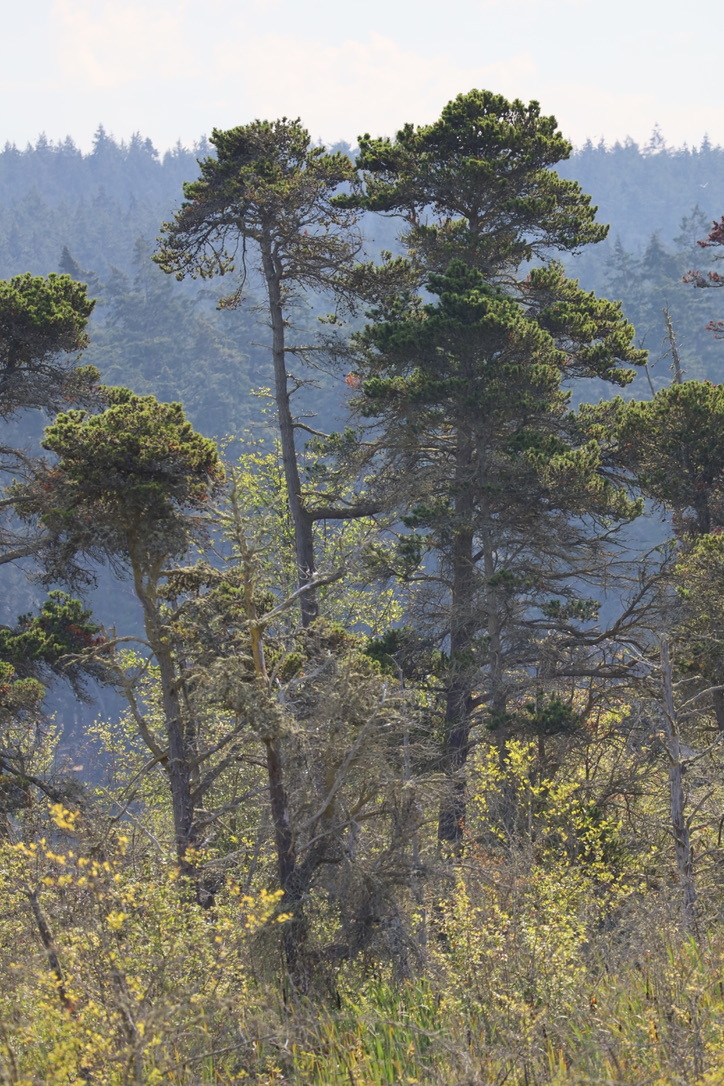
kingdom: Plantae
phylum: Tracheophyta
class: Pinopsida
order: Pinales
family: Pinaceae
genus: Pinus
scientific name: Pinus contorta
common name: Lodgepole pine
